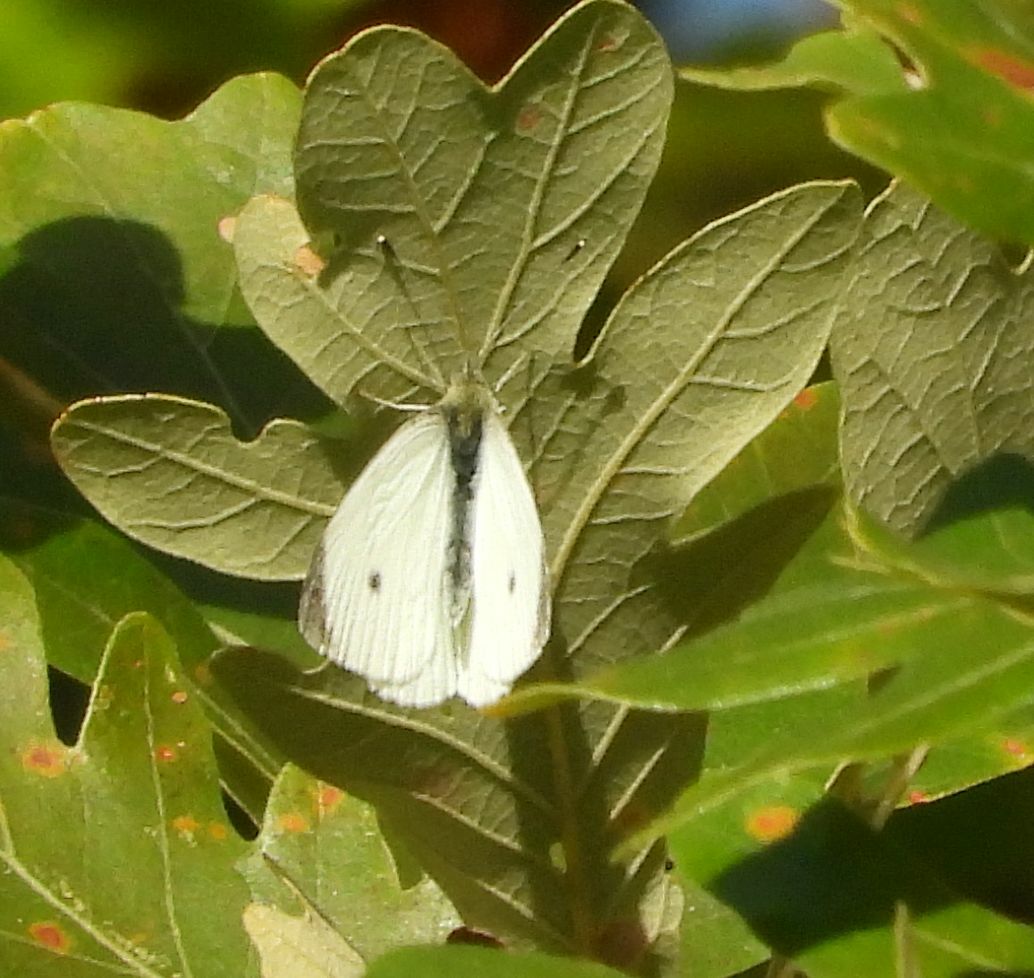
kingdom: Animalia
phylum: Arthropoda
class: Insecta
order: Lepidoptera
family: Pieridae
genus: Pieris
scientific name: Pieris rapae
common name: Small white
